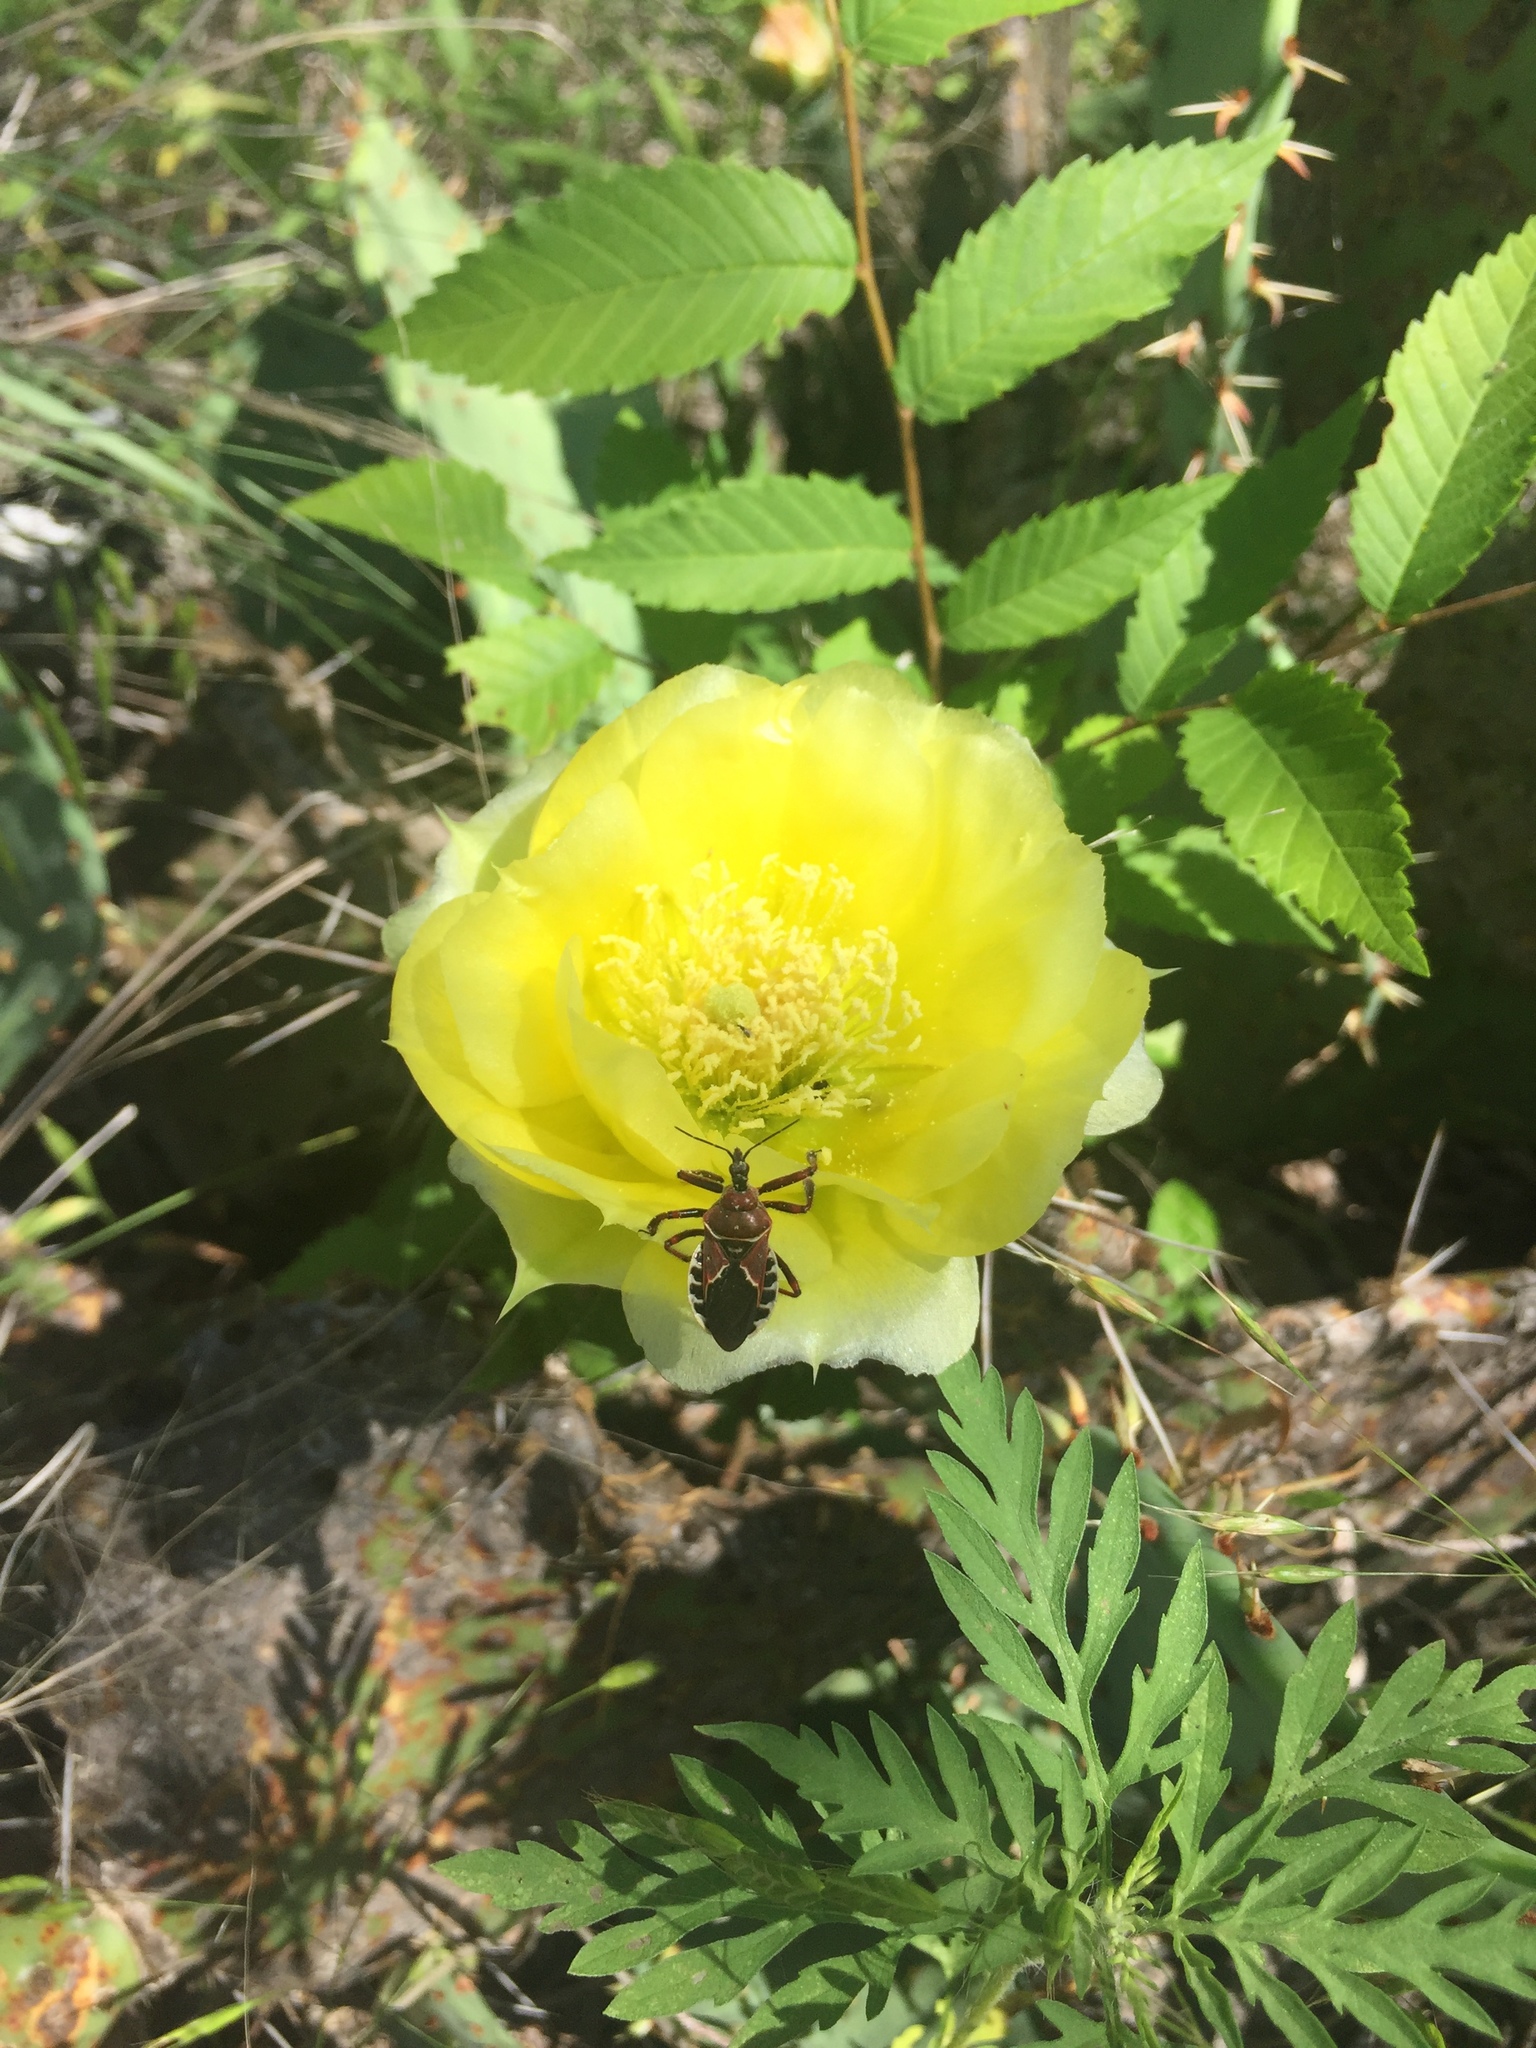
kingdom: Animalia
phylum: Arthropoda
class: Insecta
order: Hemiptera
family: Reduviidae
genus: Apiomerus
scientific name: Apiomerus spissipes
